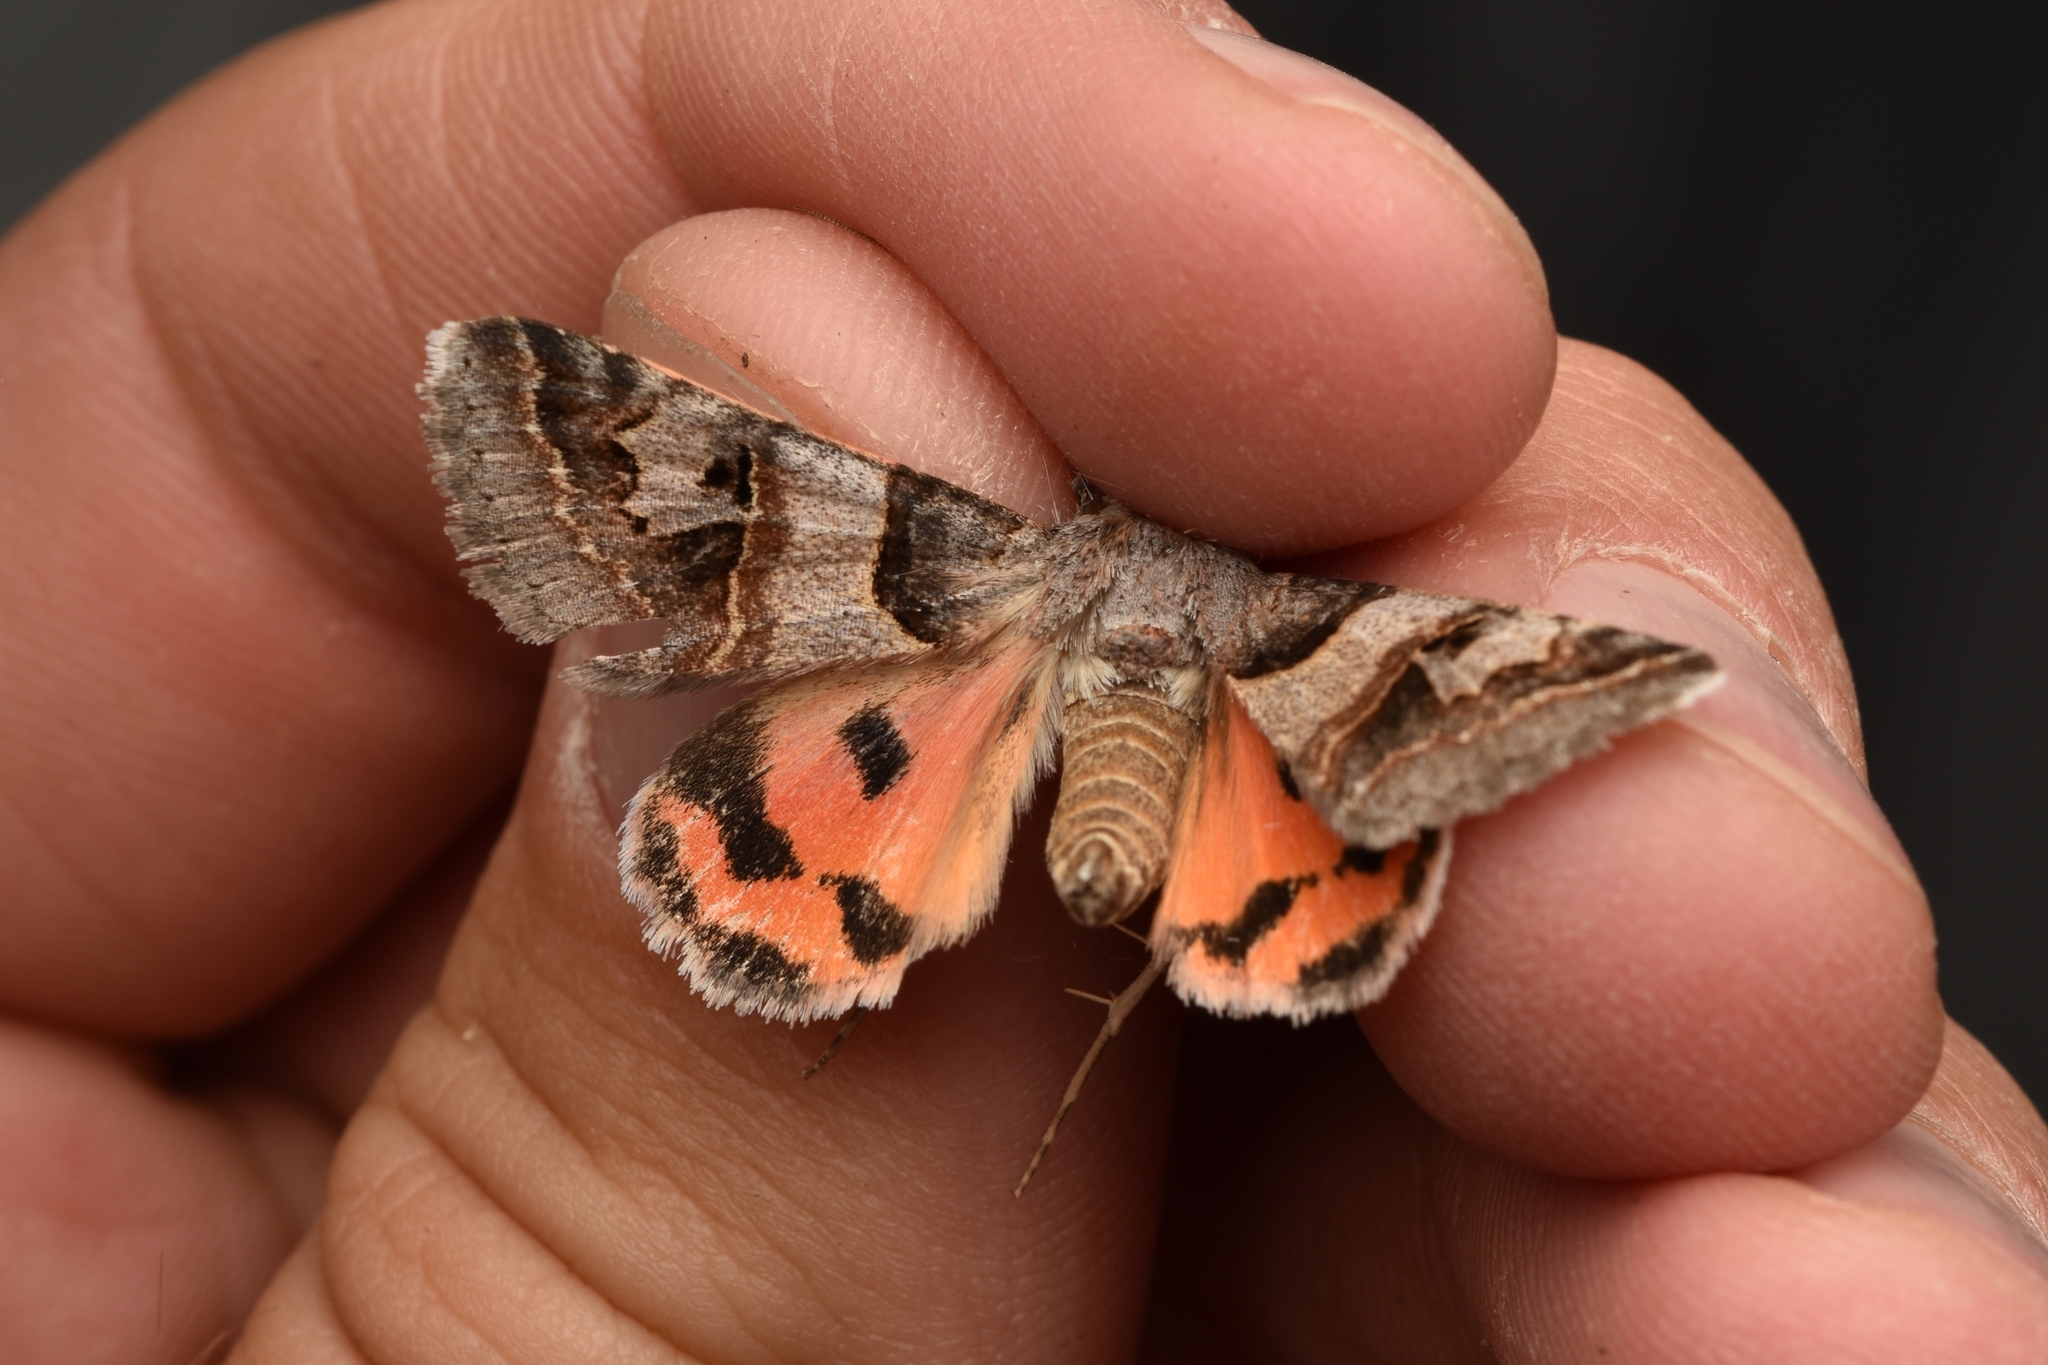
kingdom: Animalia
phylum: Arthropoda
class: Insecta
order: Lepidoptera
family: Erebidae
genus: Drasteria
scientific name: Drasteria ingeniculata
